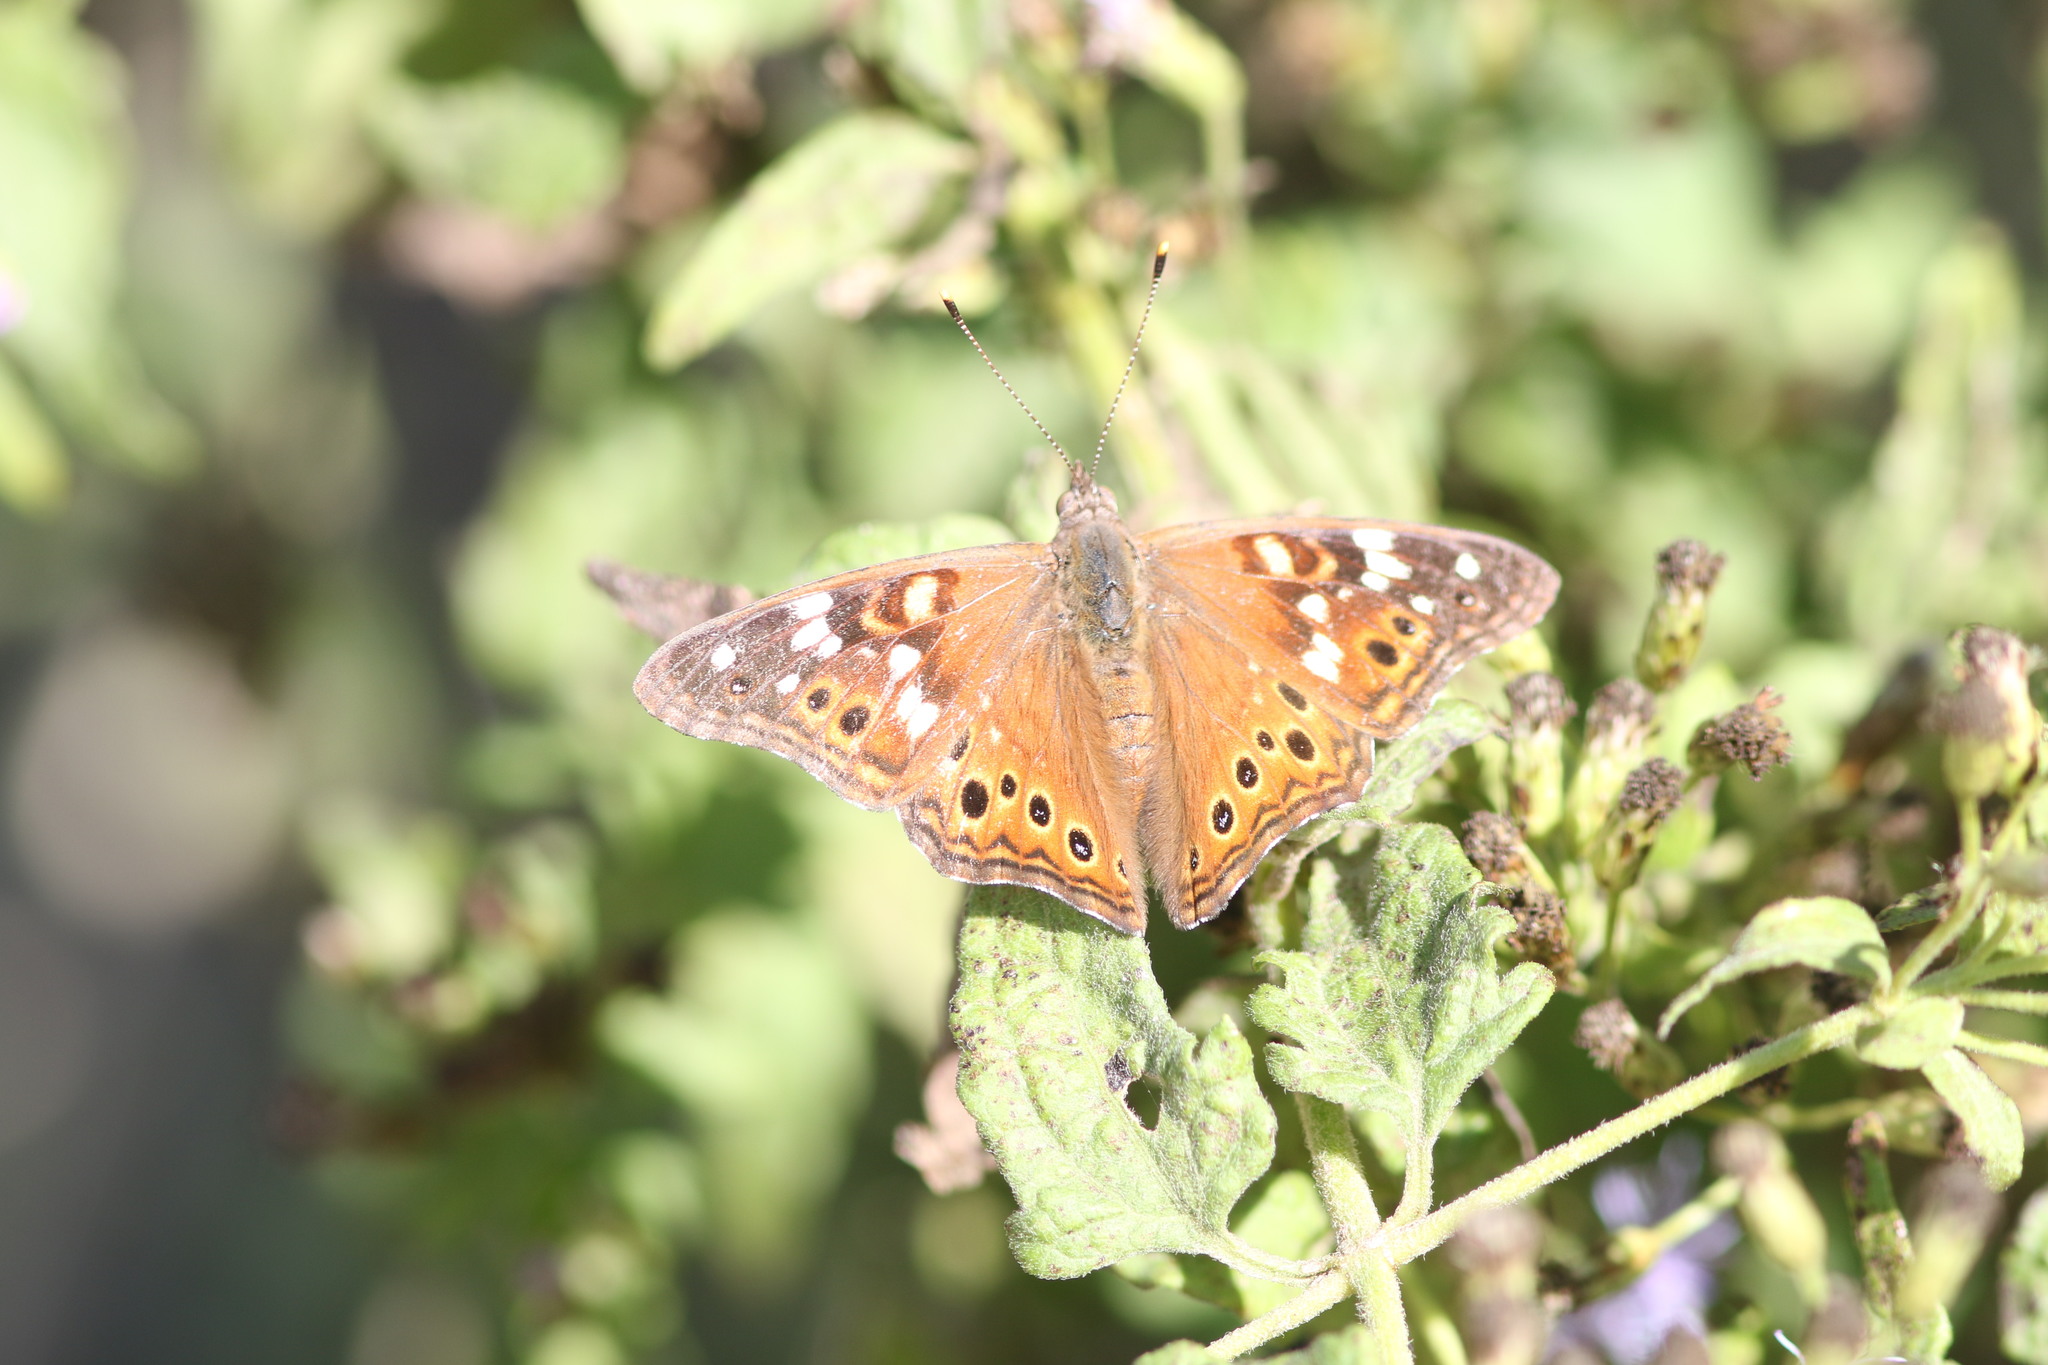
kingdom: Animalia
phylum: Arthropoda
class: Insecta
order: Lepidoptera
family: Nymphalidae
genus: Asterocampa
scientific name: Asterocampa leilia
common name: Empress leilia
